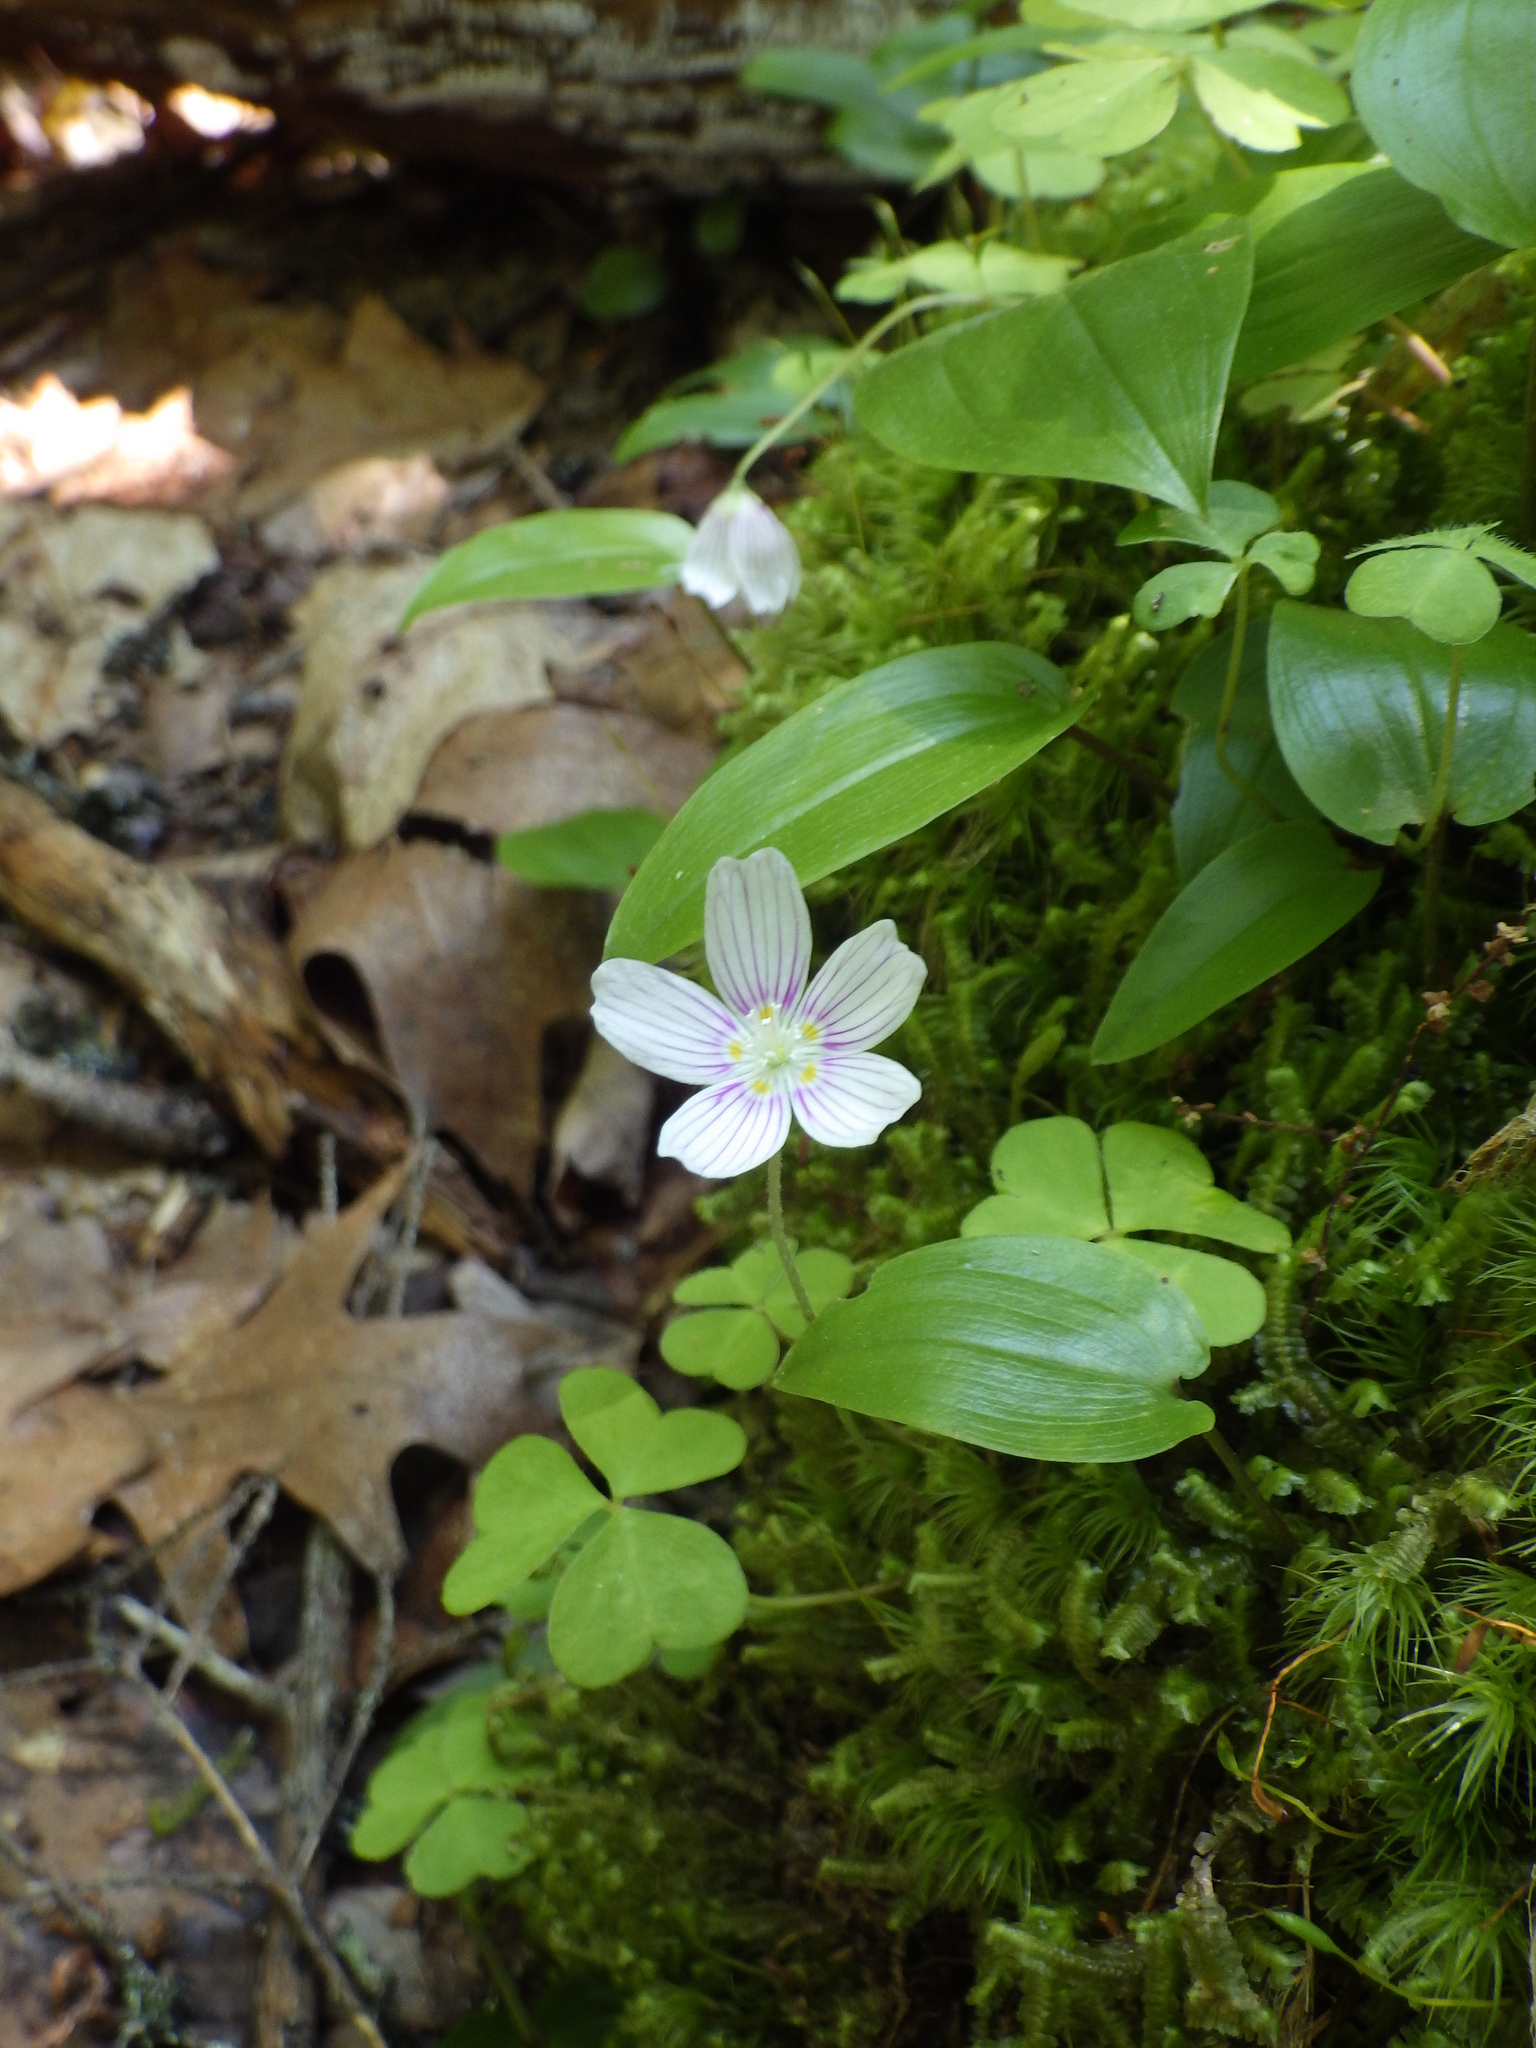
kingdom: Plantae
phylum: Tracheophyta
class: Magnoliopsida
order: Oxalidales
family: Oxalidaceae
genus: Oxalis
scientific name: Oxalis montana
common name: American wood-sorrel
